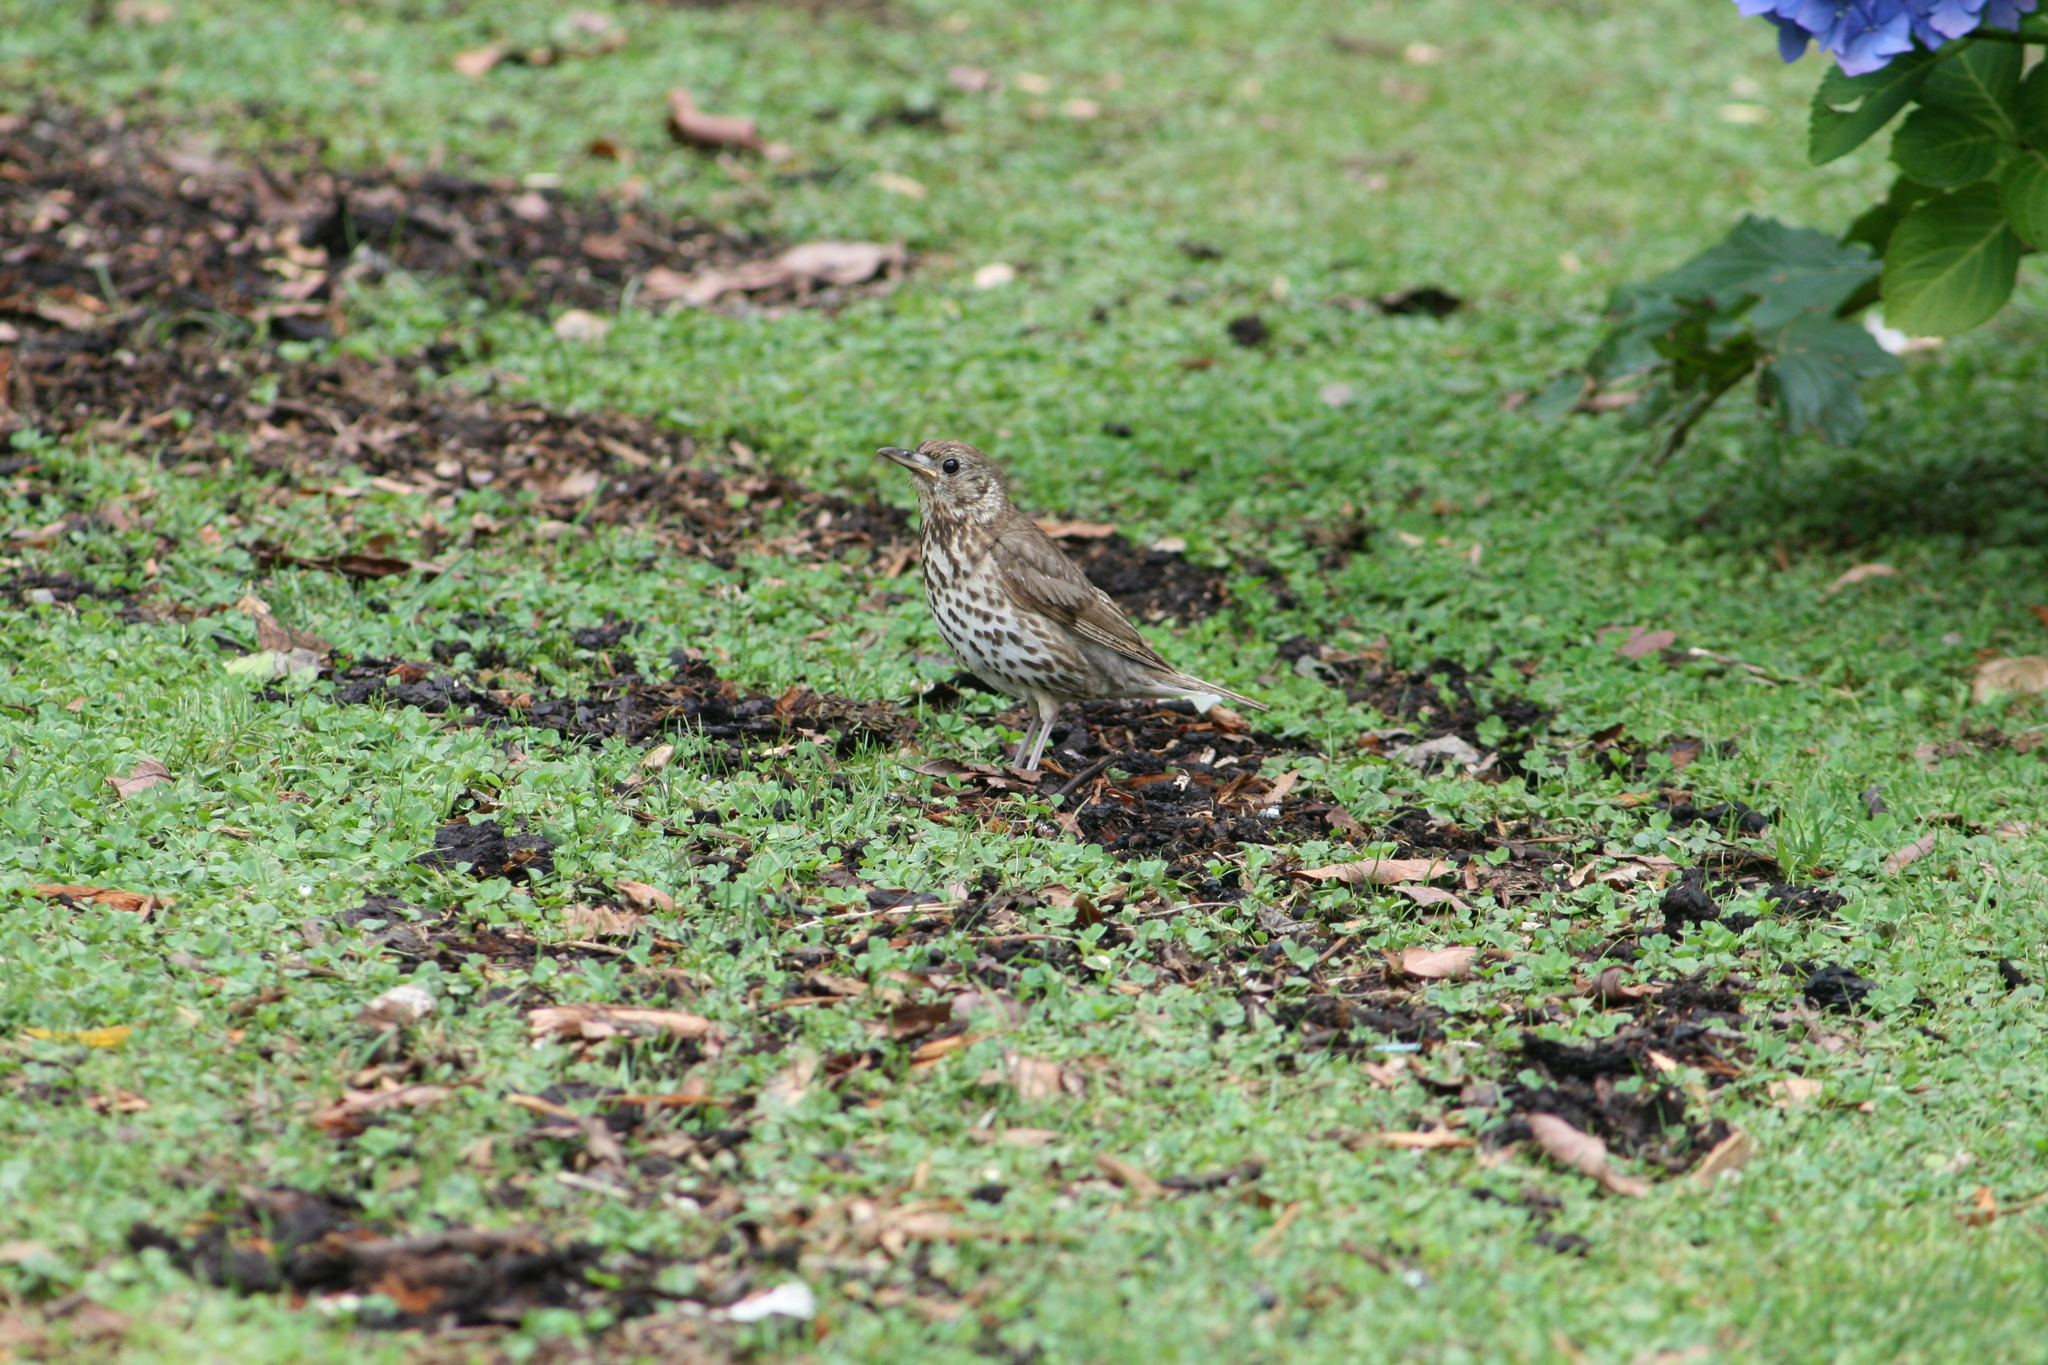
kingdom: Animalia
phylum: Chordata
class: Aves
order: Passeriformes
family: Turdidae
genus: Turdus
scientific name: Turdus philomelos
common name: Song thrush
